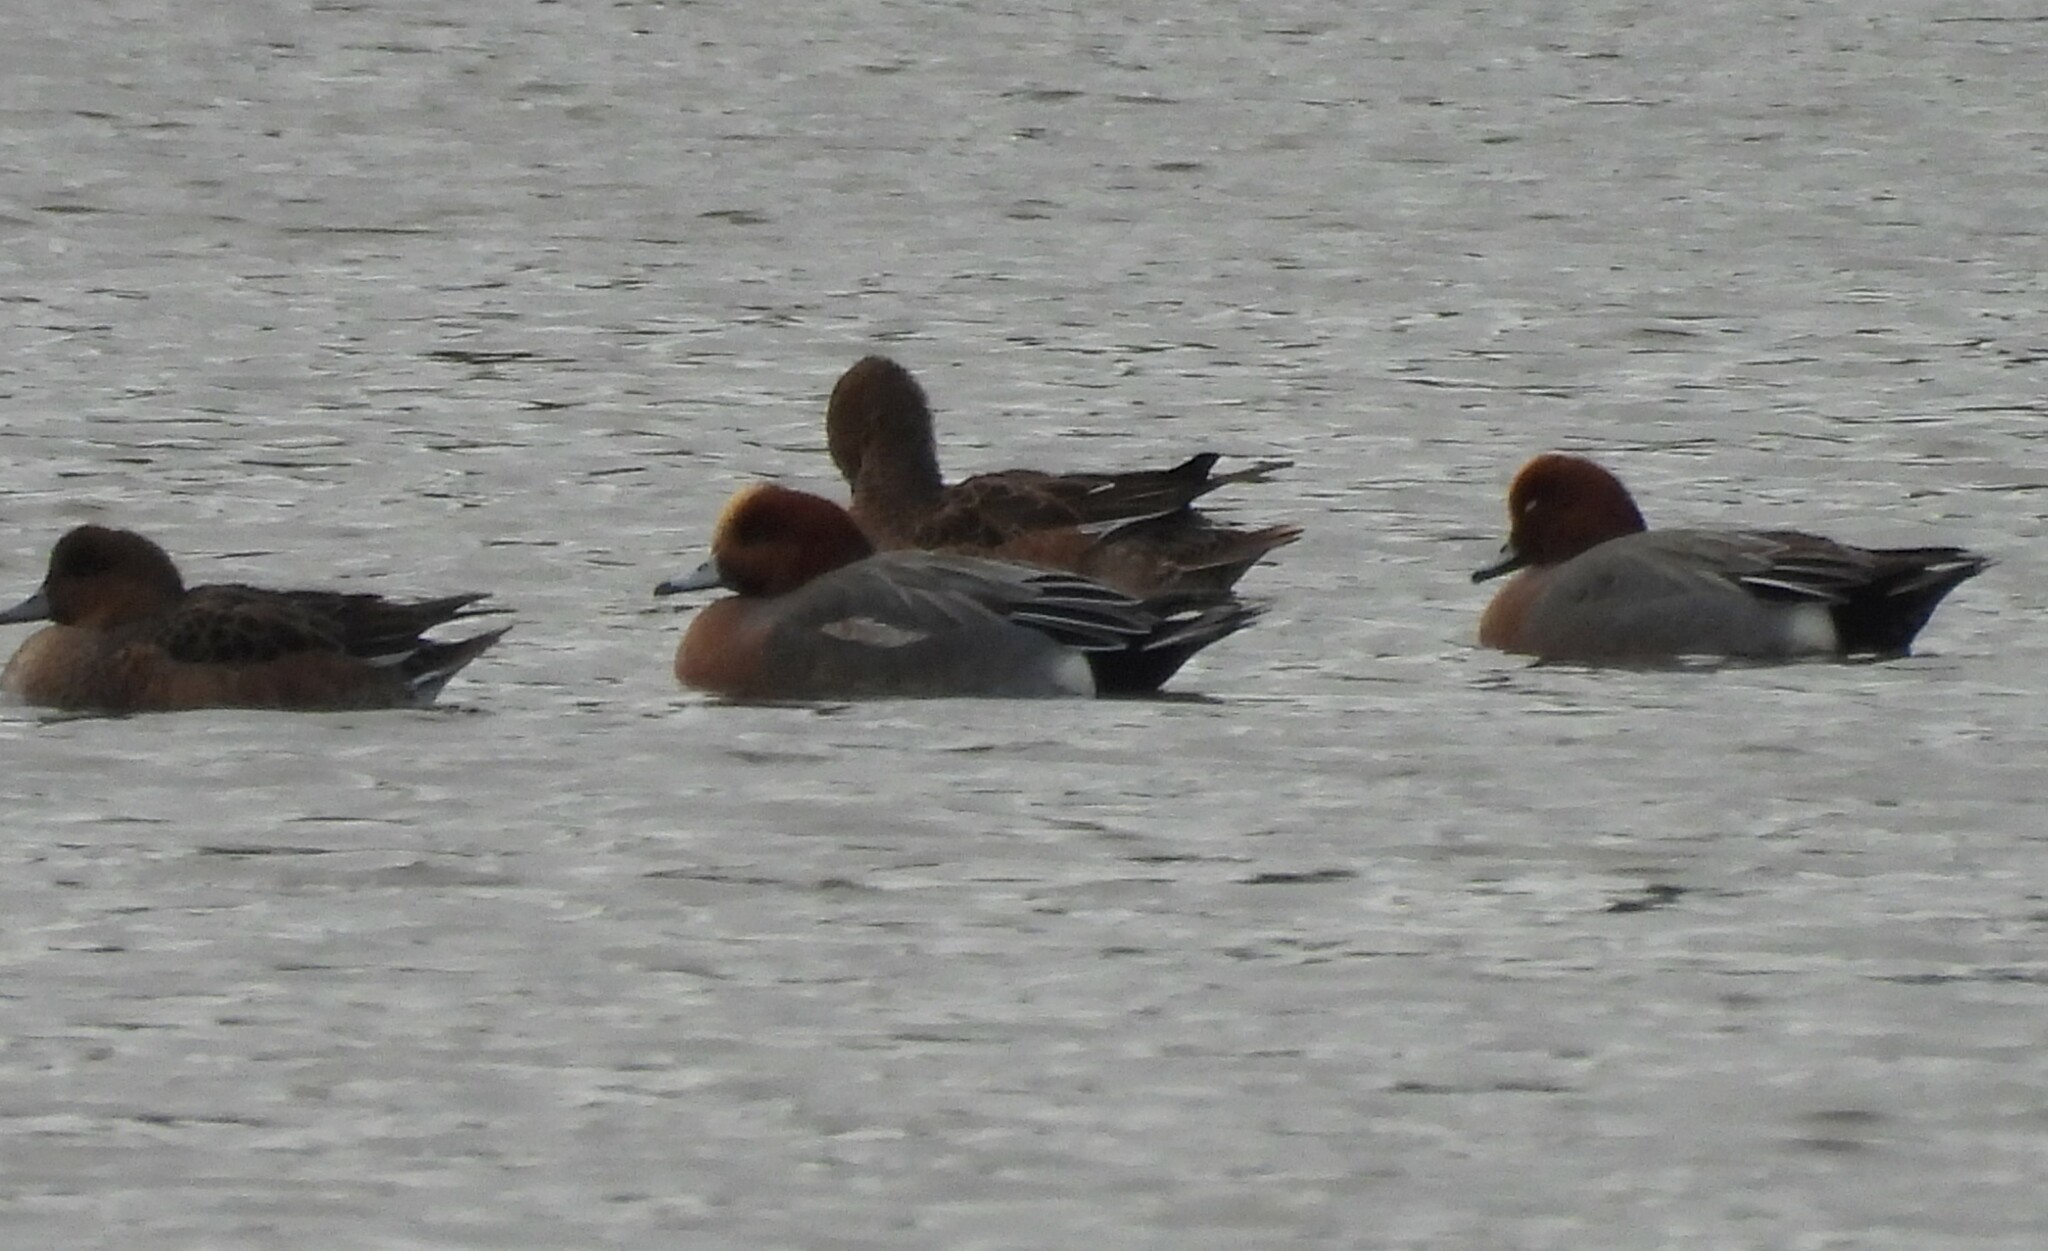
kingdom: Animalia
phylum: Chordata
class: Aves
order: Anseriformes
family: Anatidae
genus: Mareca
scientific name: Mareca penelope
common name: Eurasian wigeon
